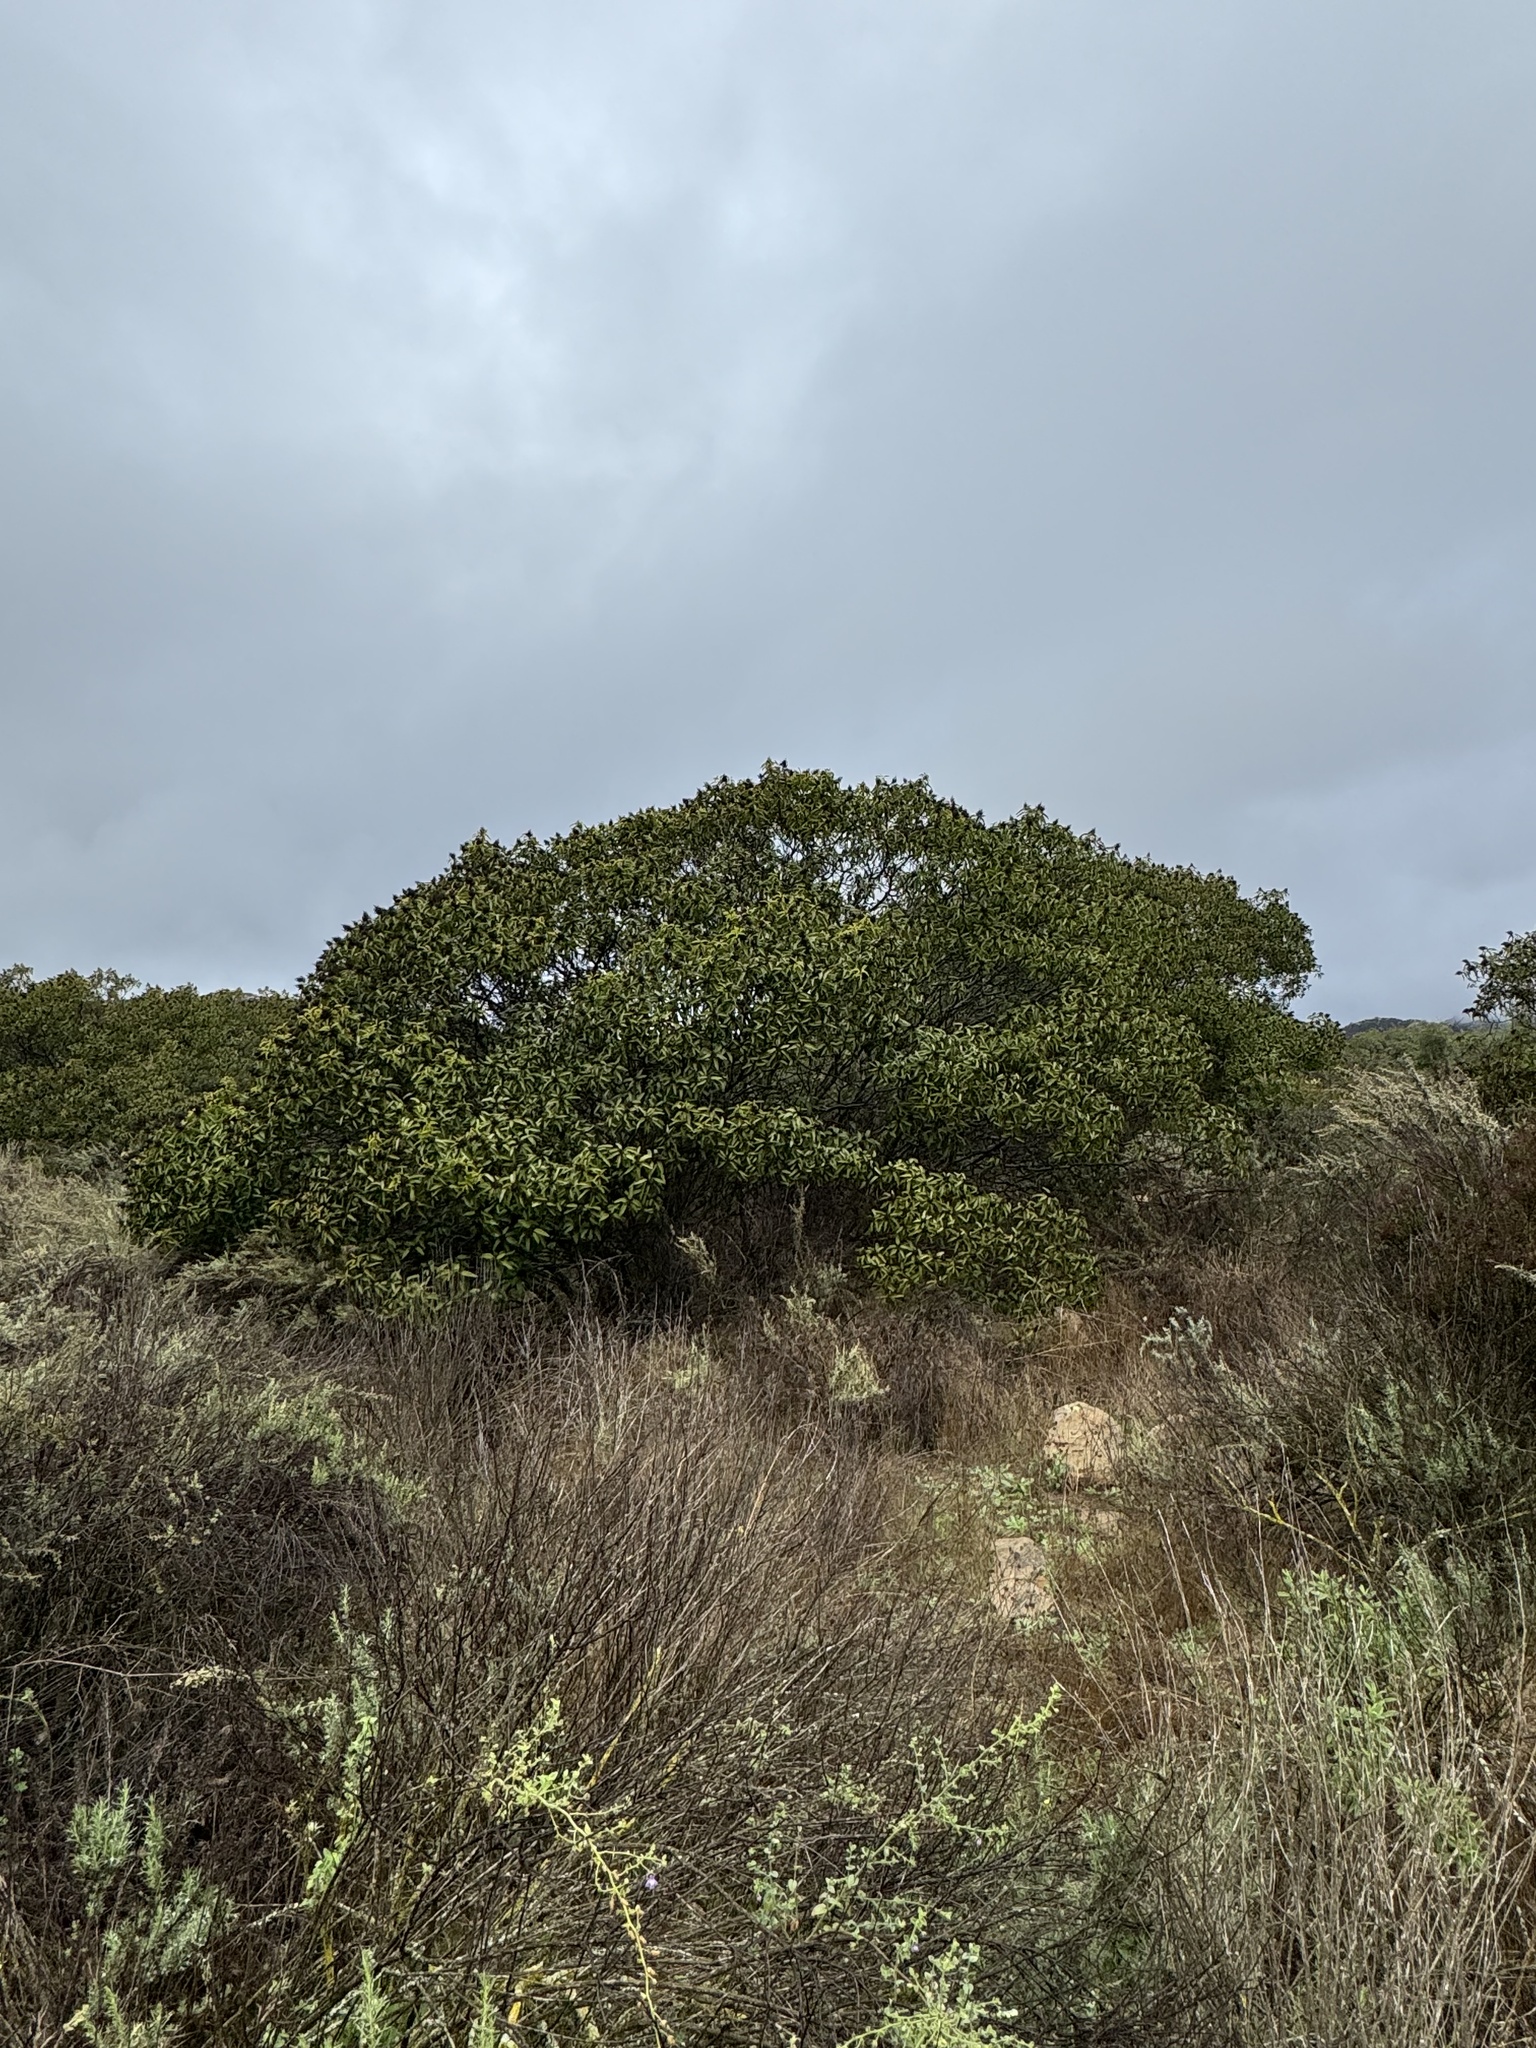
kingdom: Plantae
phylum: Tracheophyta
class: Magnoliopsida
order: Sapindales
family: Anacardiaceae
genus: Malosma
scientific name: Malosma laurina
